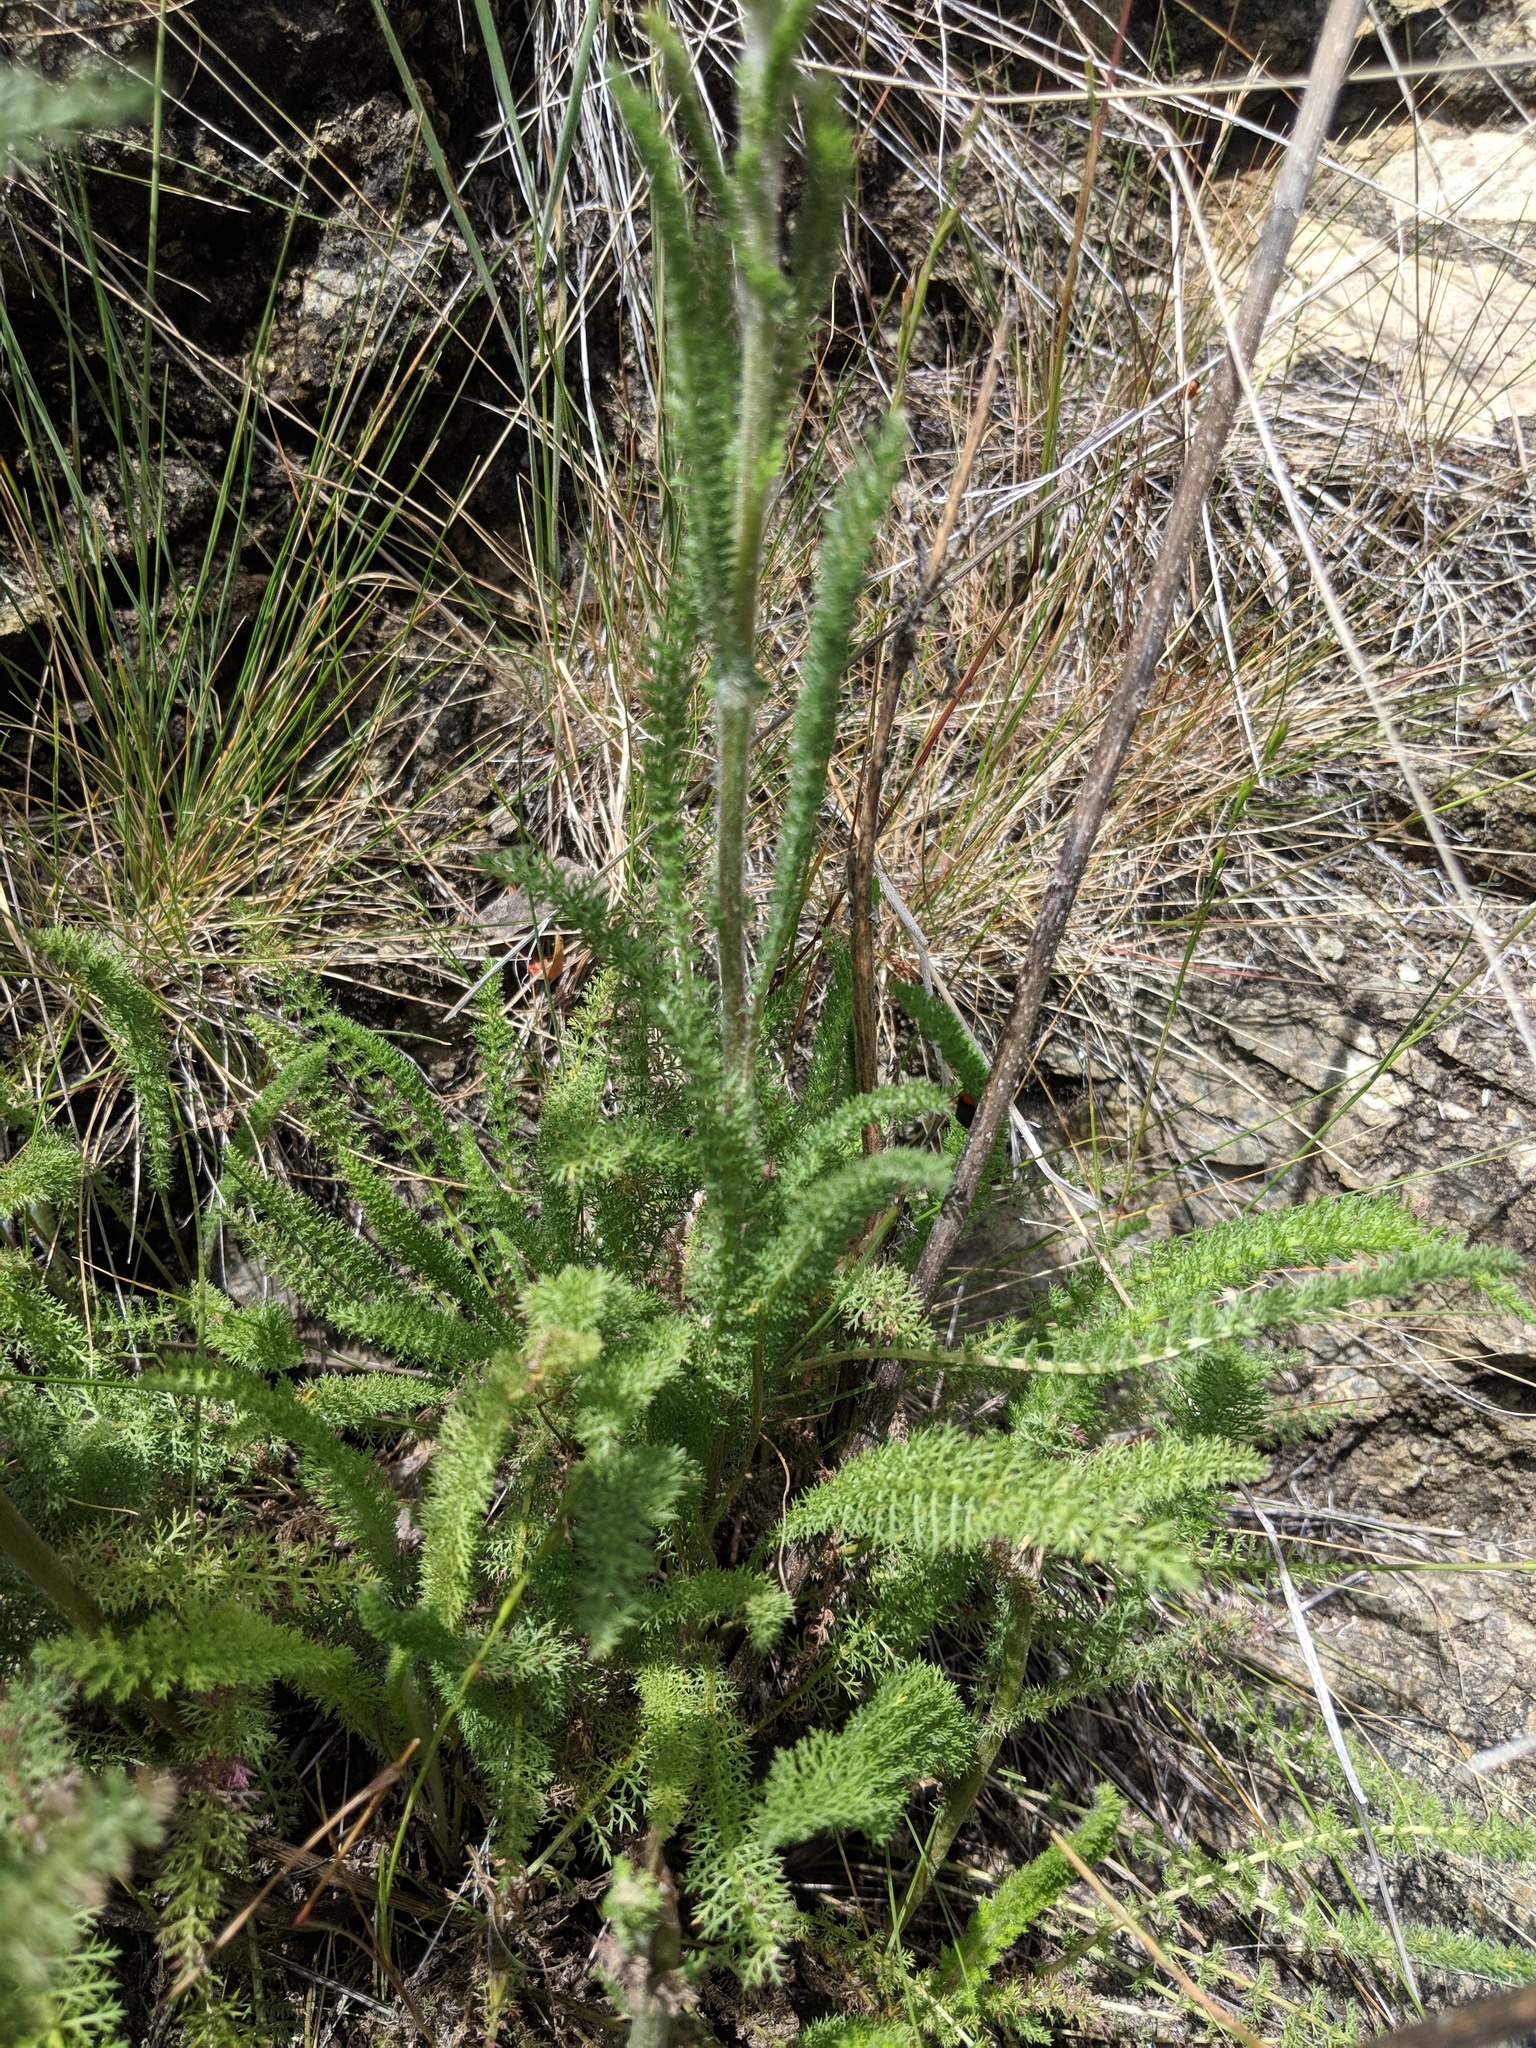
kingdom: Plantae
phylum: Tracheophyta
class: Magnoliopsida
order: Asterales
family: Asteraceae
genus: Achillea
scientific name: Achillea millefolium
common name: Yarrow
